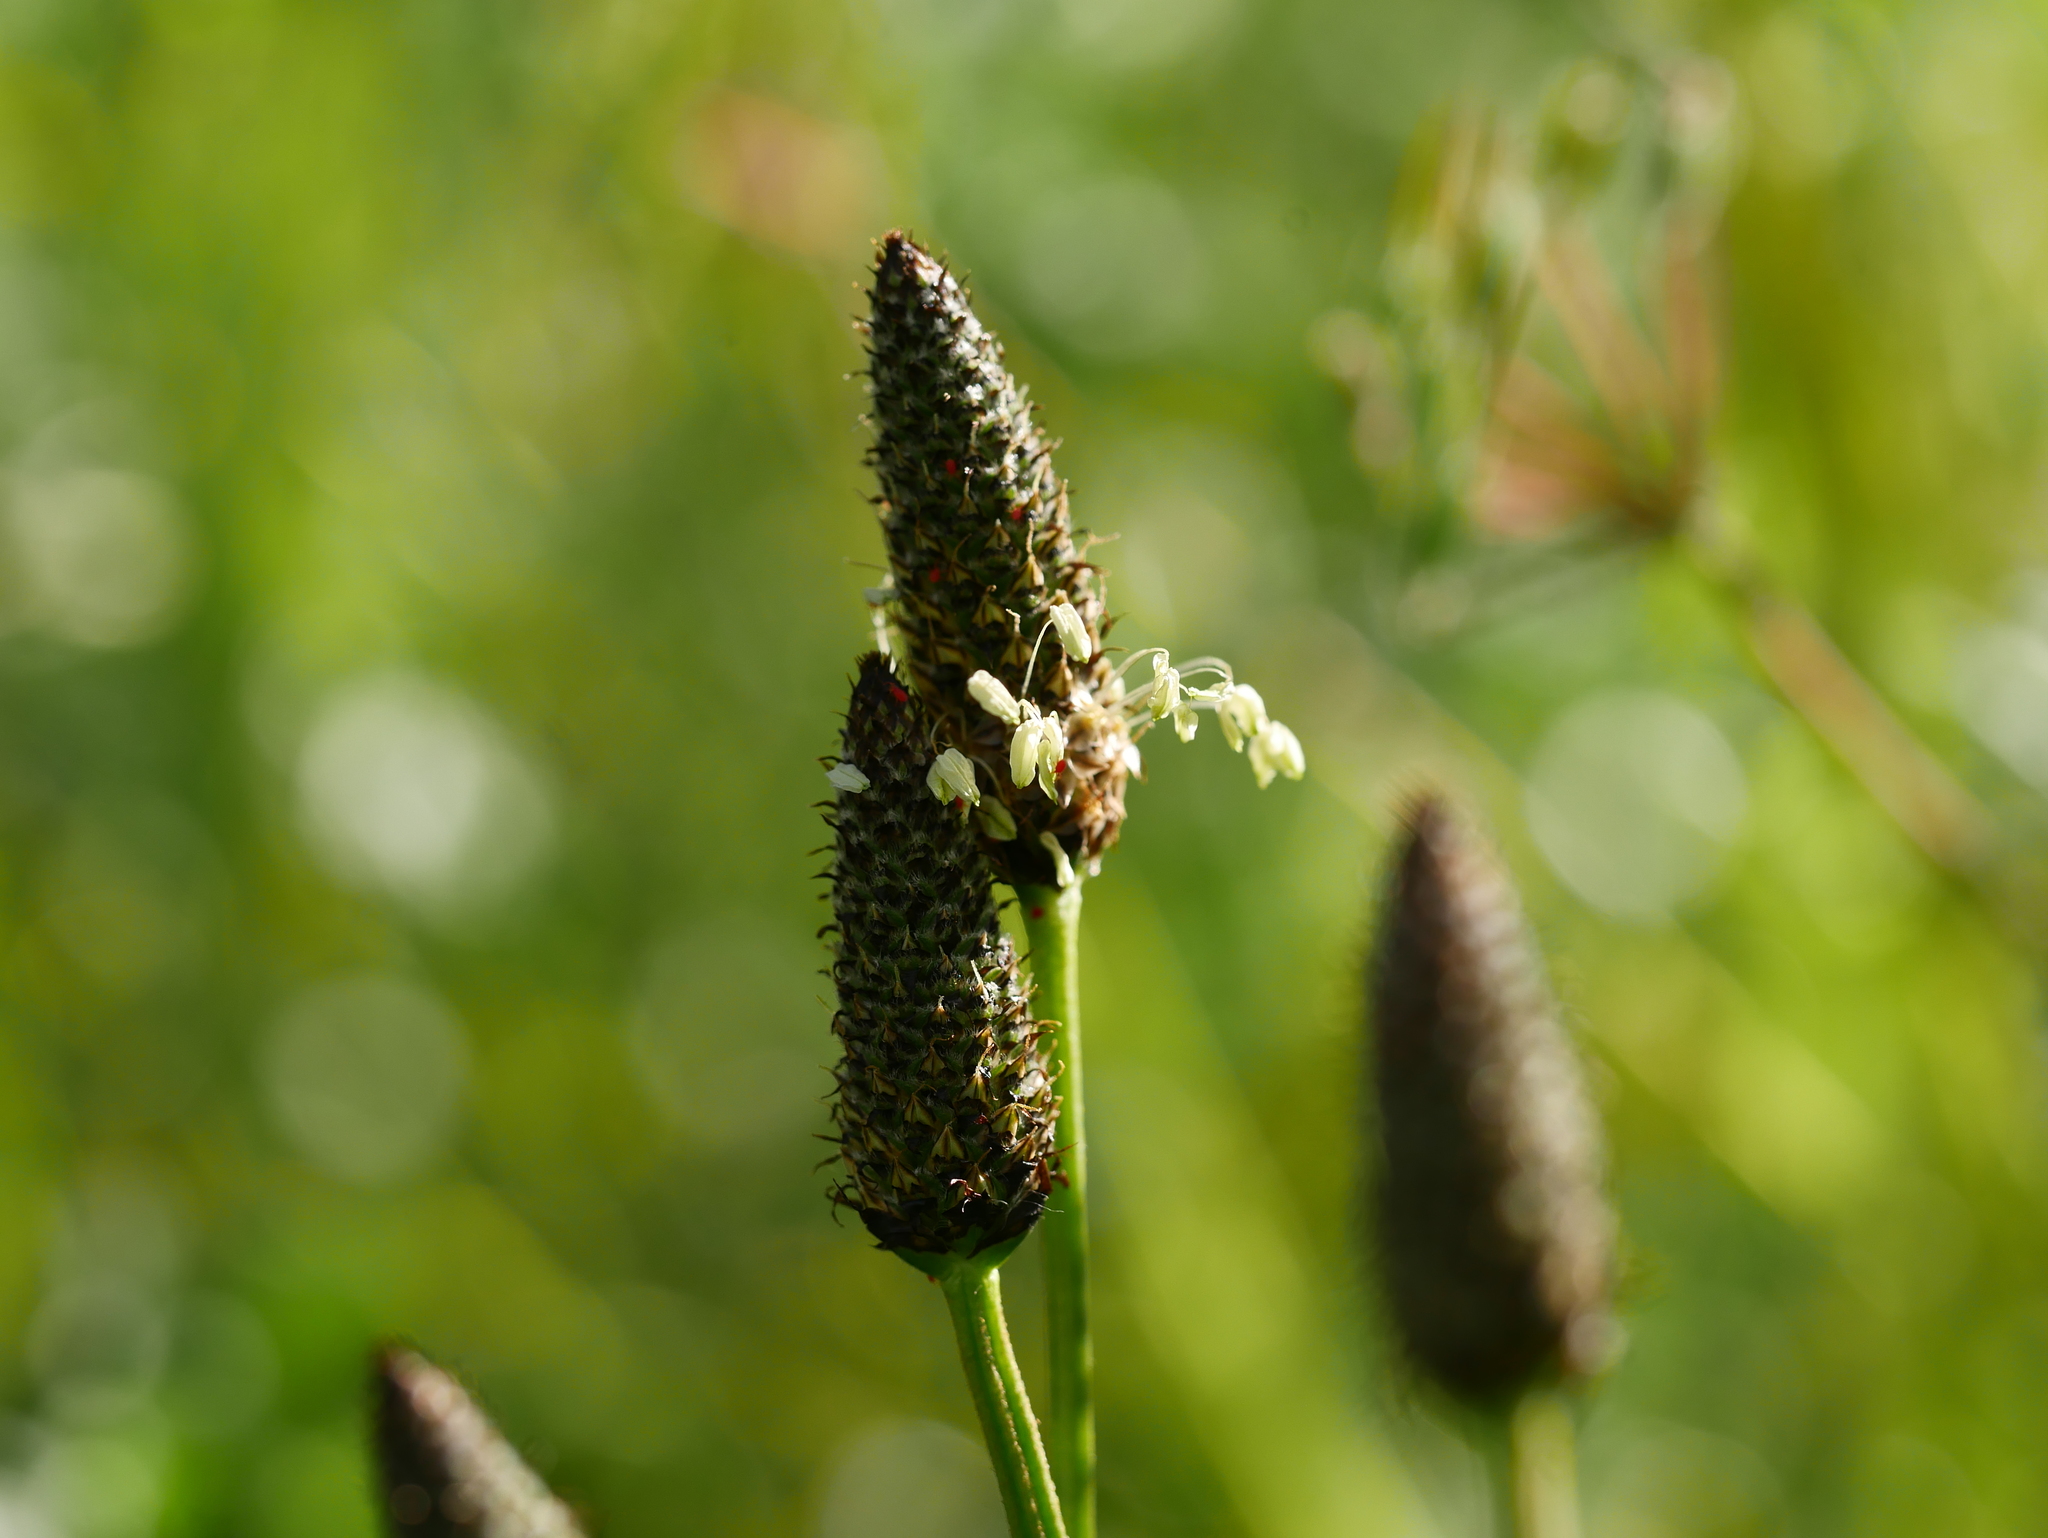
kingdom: Plantae
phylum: Tracheophyta
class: Magnoliopsida
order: Lamiales
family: Plantaginaceae
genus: Plantago
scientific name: Plantago lanceolata
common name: Ribwort plantain
